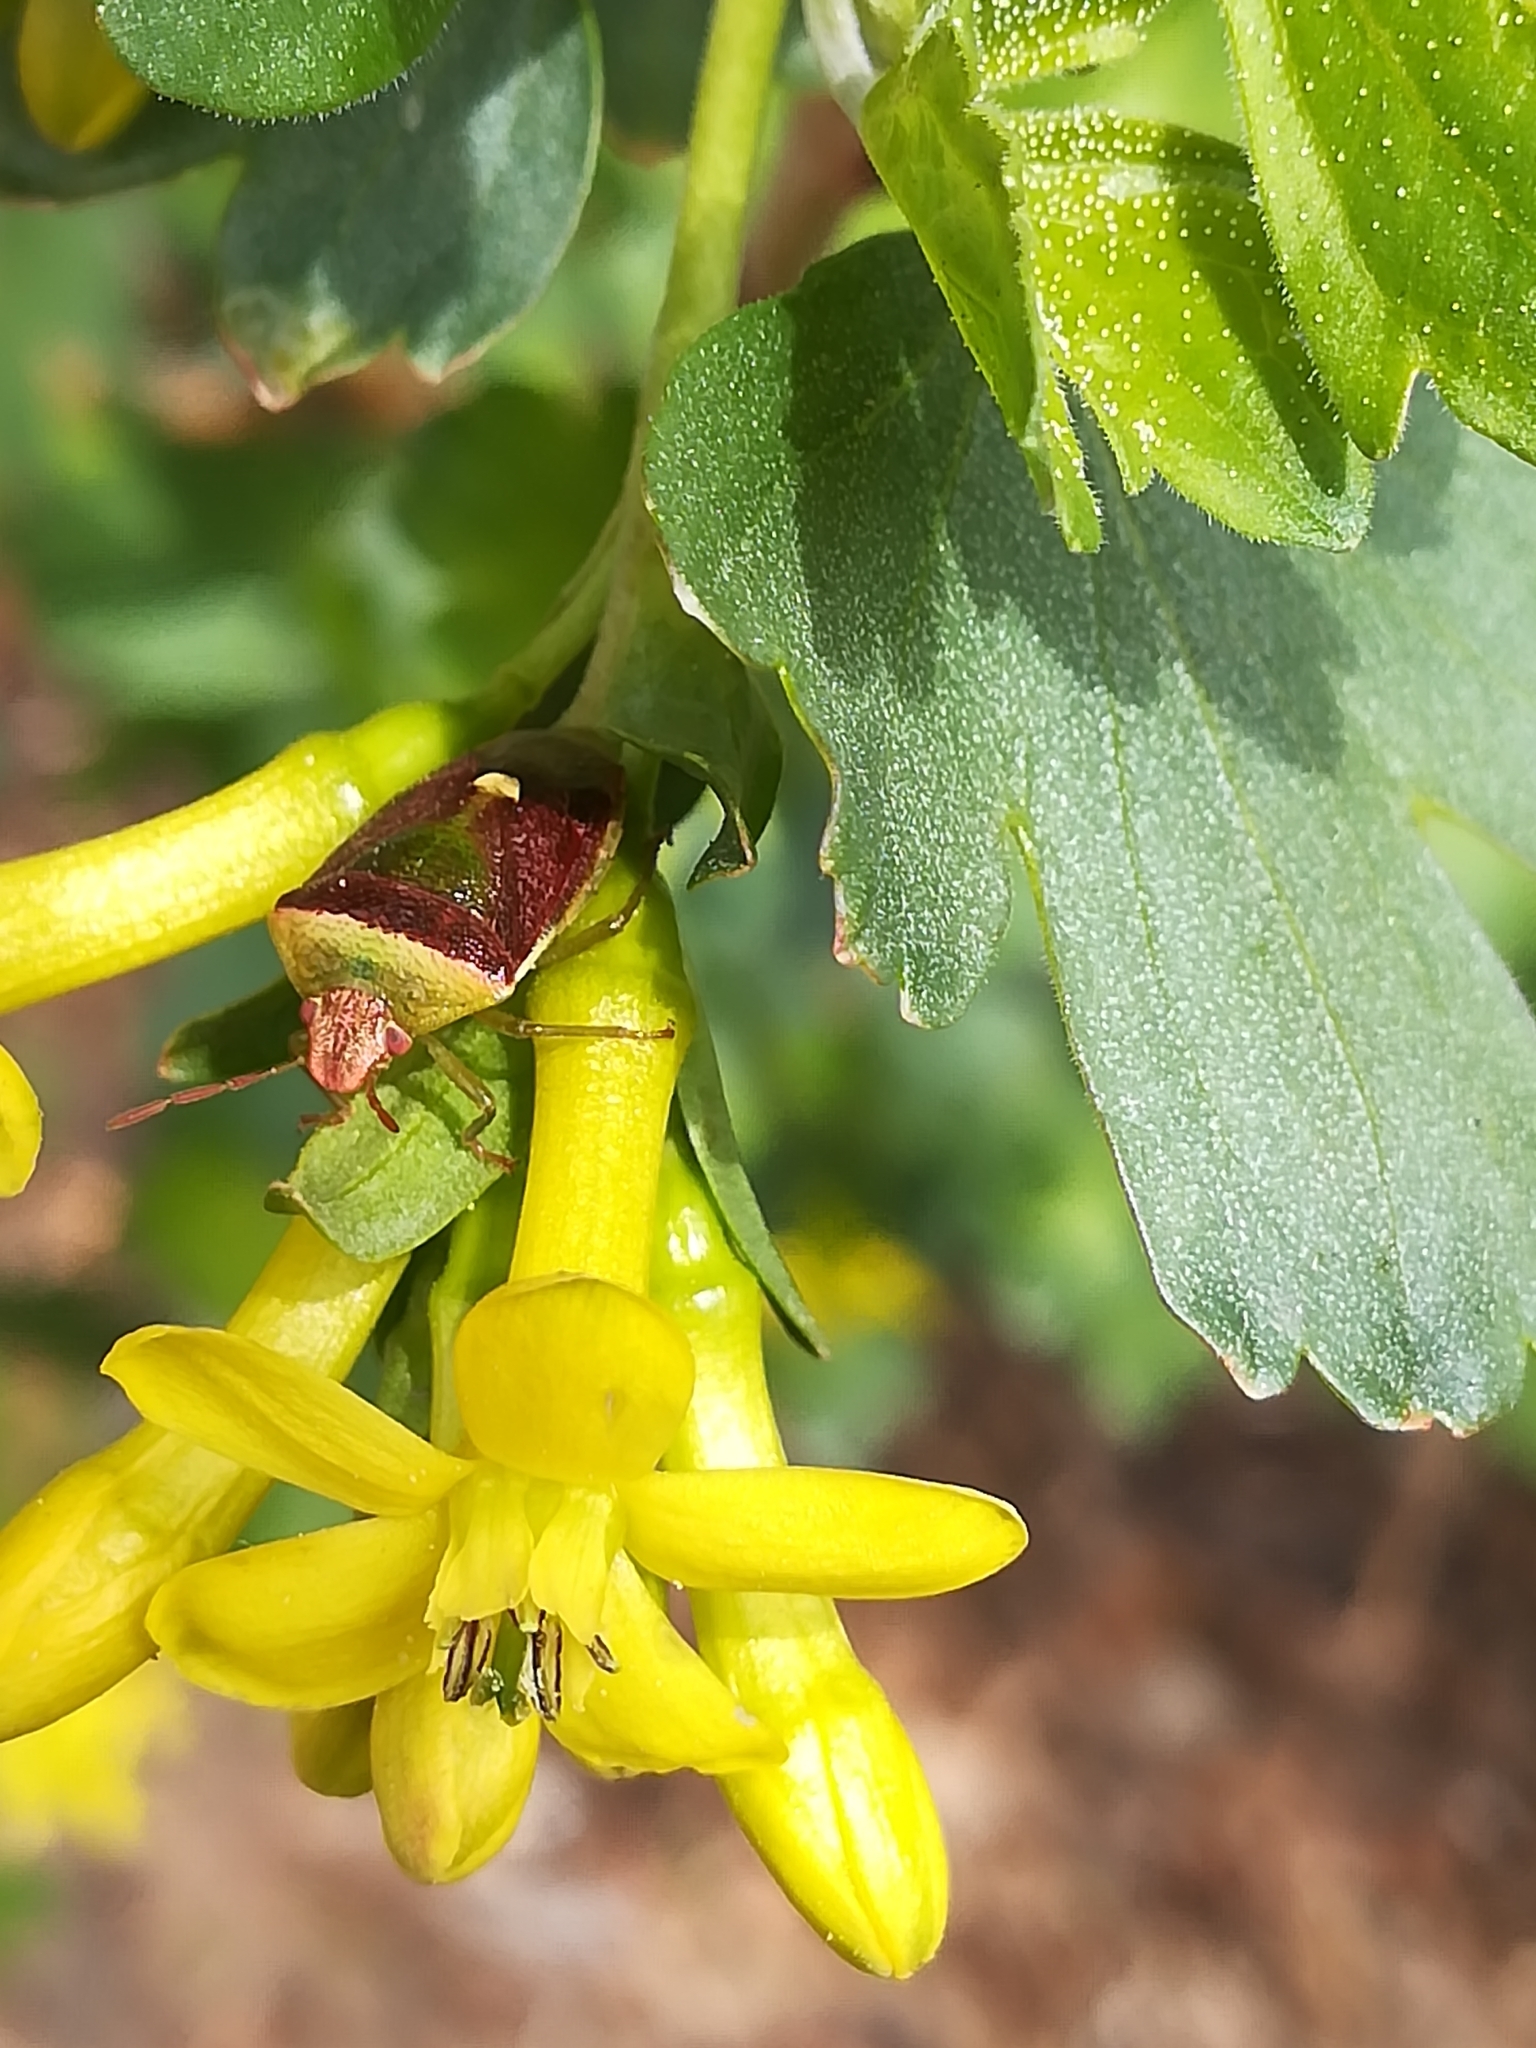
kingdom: Animalia
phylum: Arthropoda
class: Insecta
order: Hemiptera
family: Pentatomidae
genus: Banasa
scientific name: Banasa dimidiata
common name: Green burgundy stink bug
